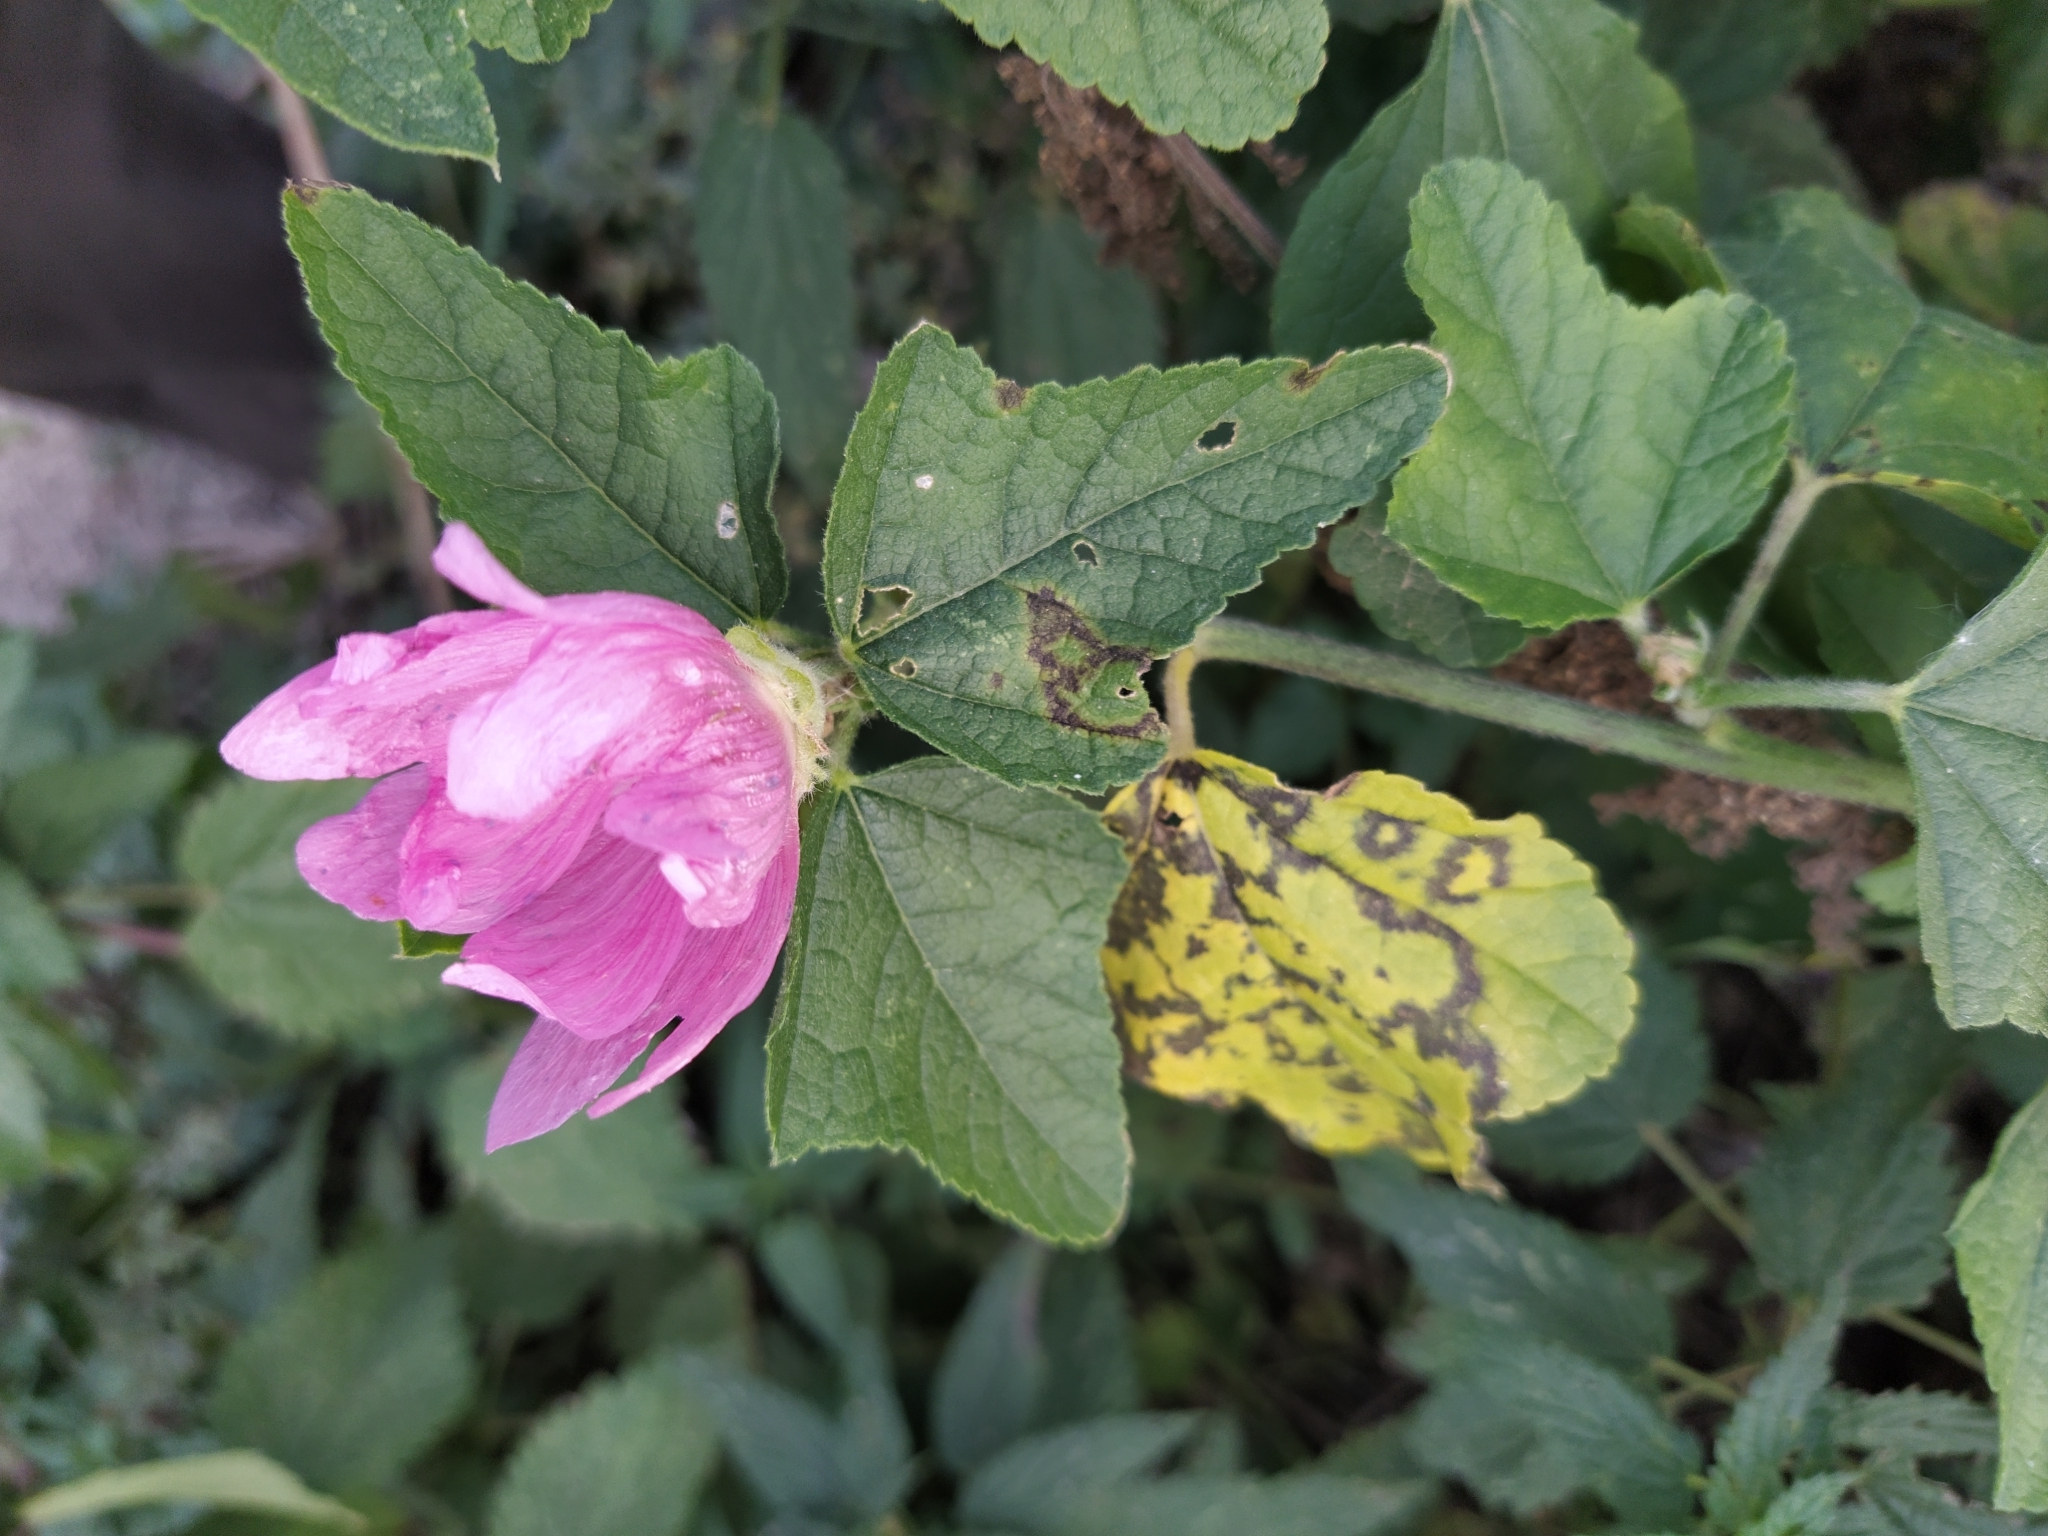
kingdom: Plantae
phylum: Tracheophyta
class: Magnoliopsida
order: Malvales
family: Malvaceae
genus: Malva
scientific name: Malva thuringiaca
